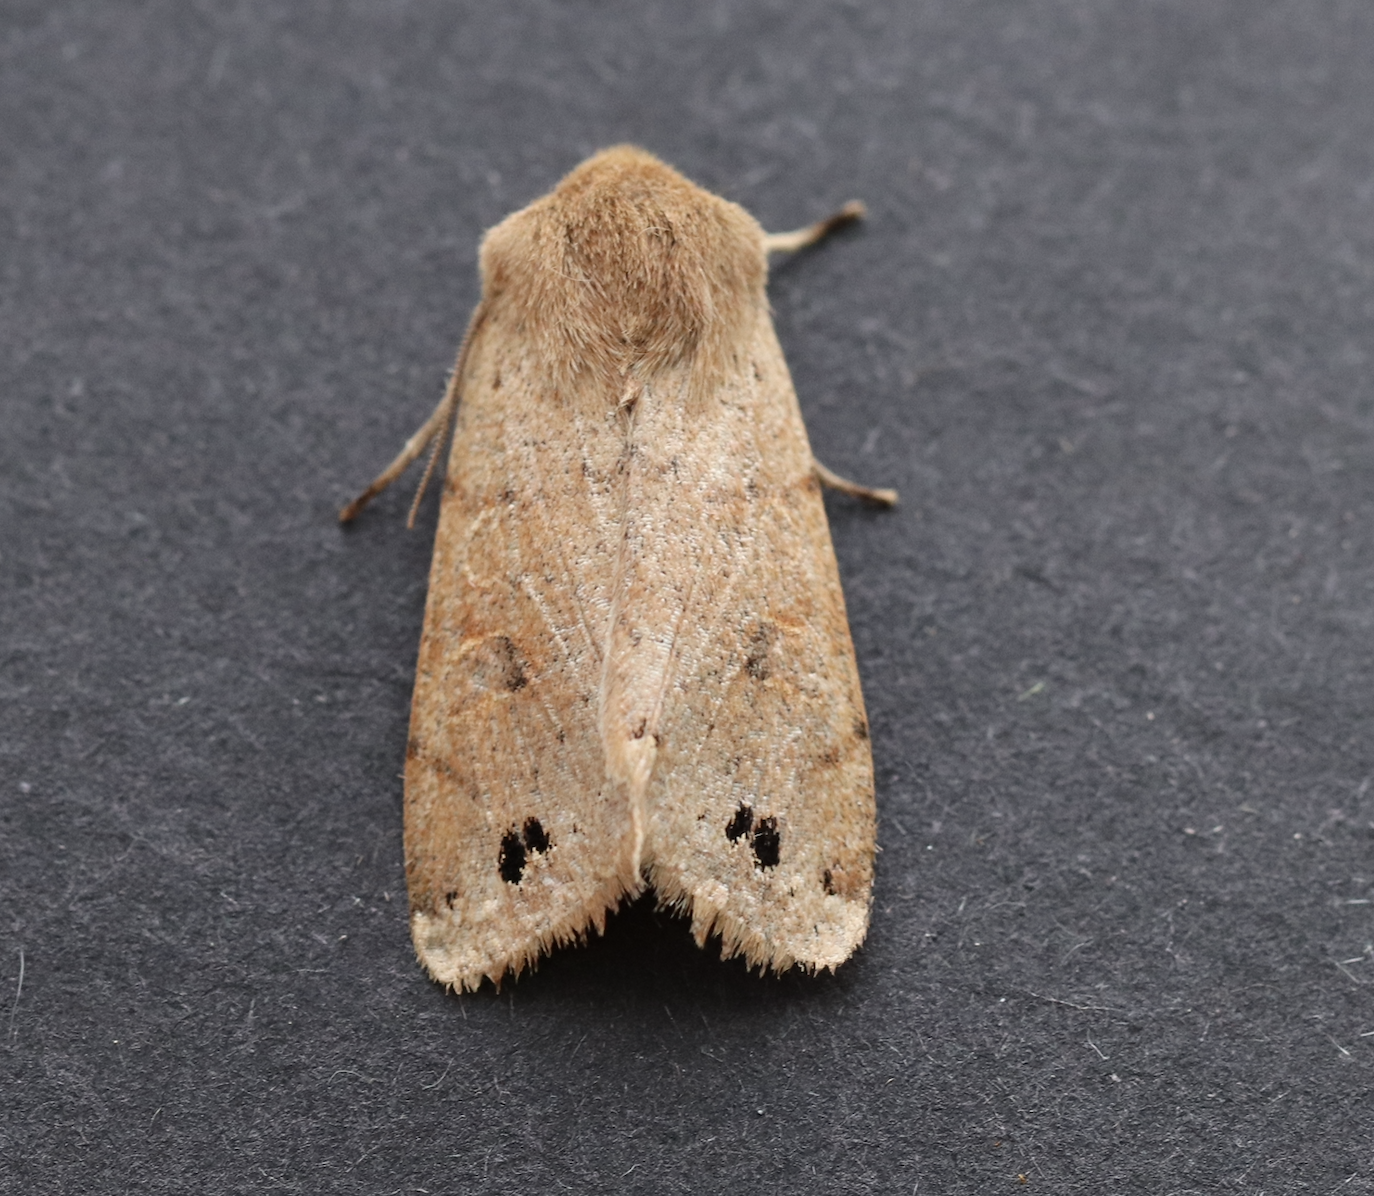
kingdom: Animalia
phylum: Arthropoda
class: Insecta
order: Lepidoptera
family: Noctuidae
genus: Anorthoa
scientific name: Anorthoa munda
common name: Twin-spotted quaker
